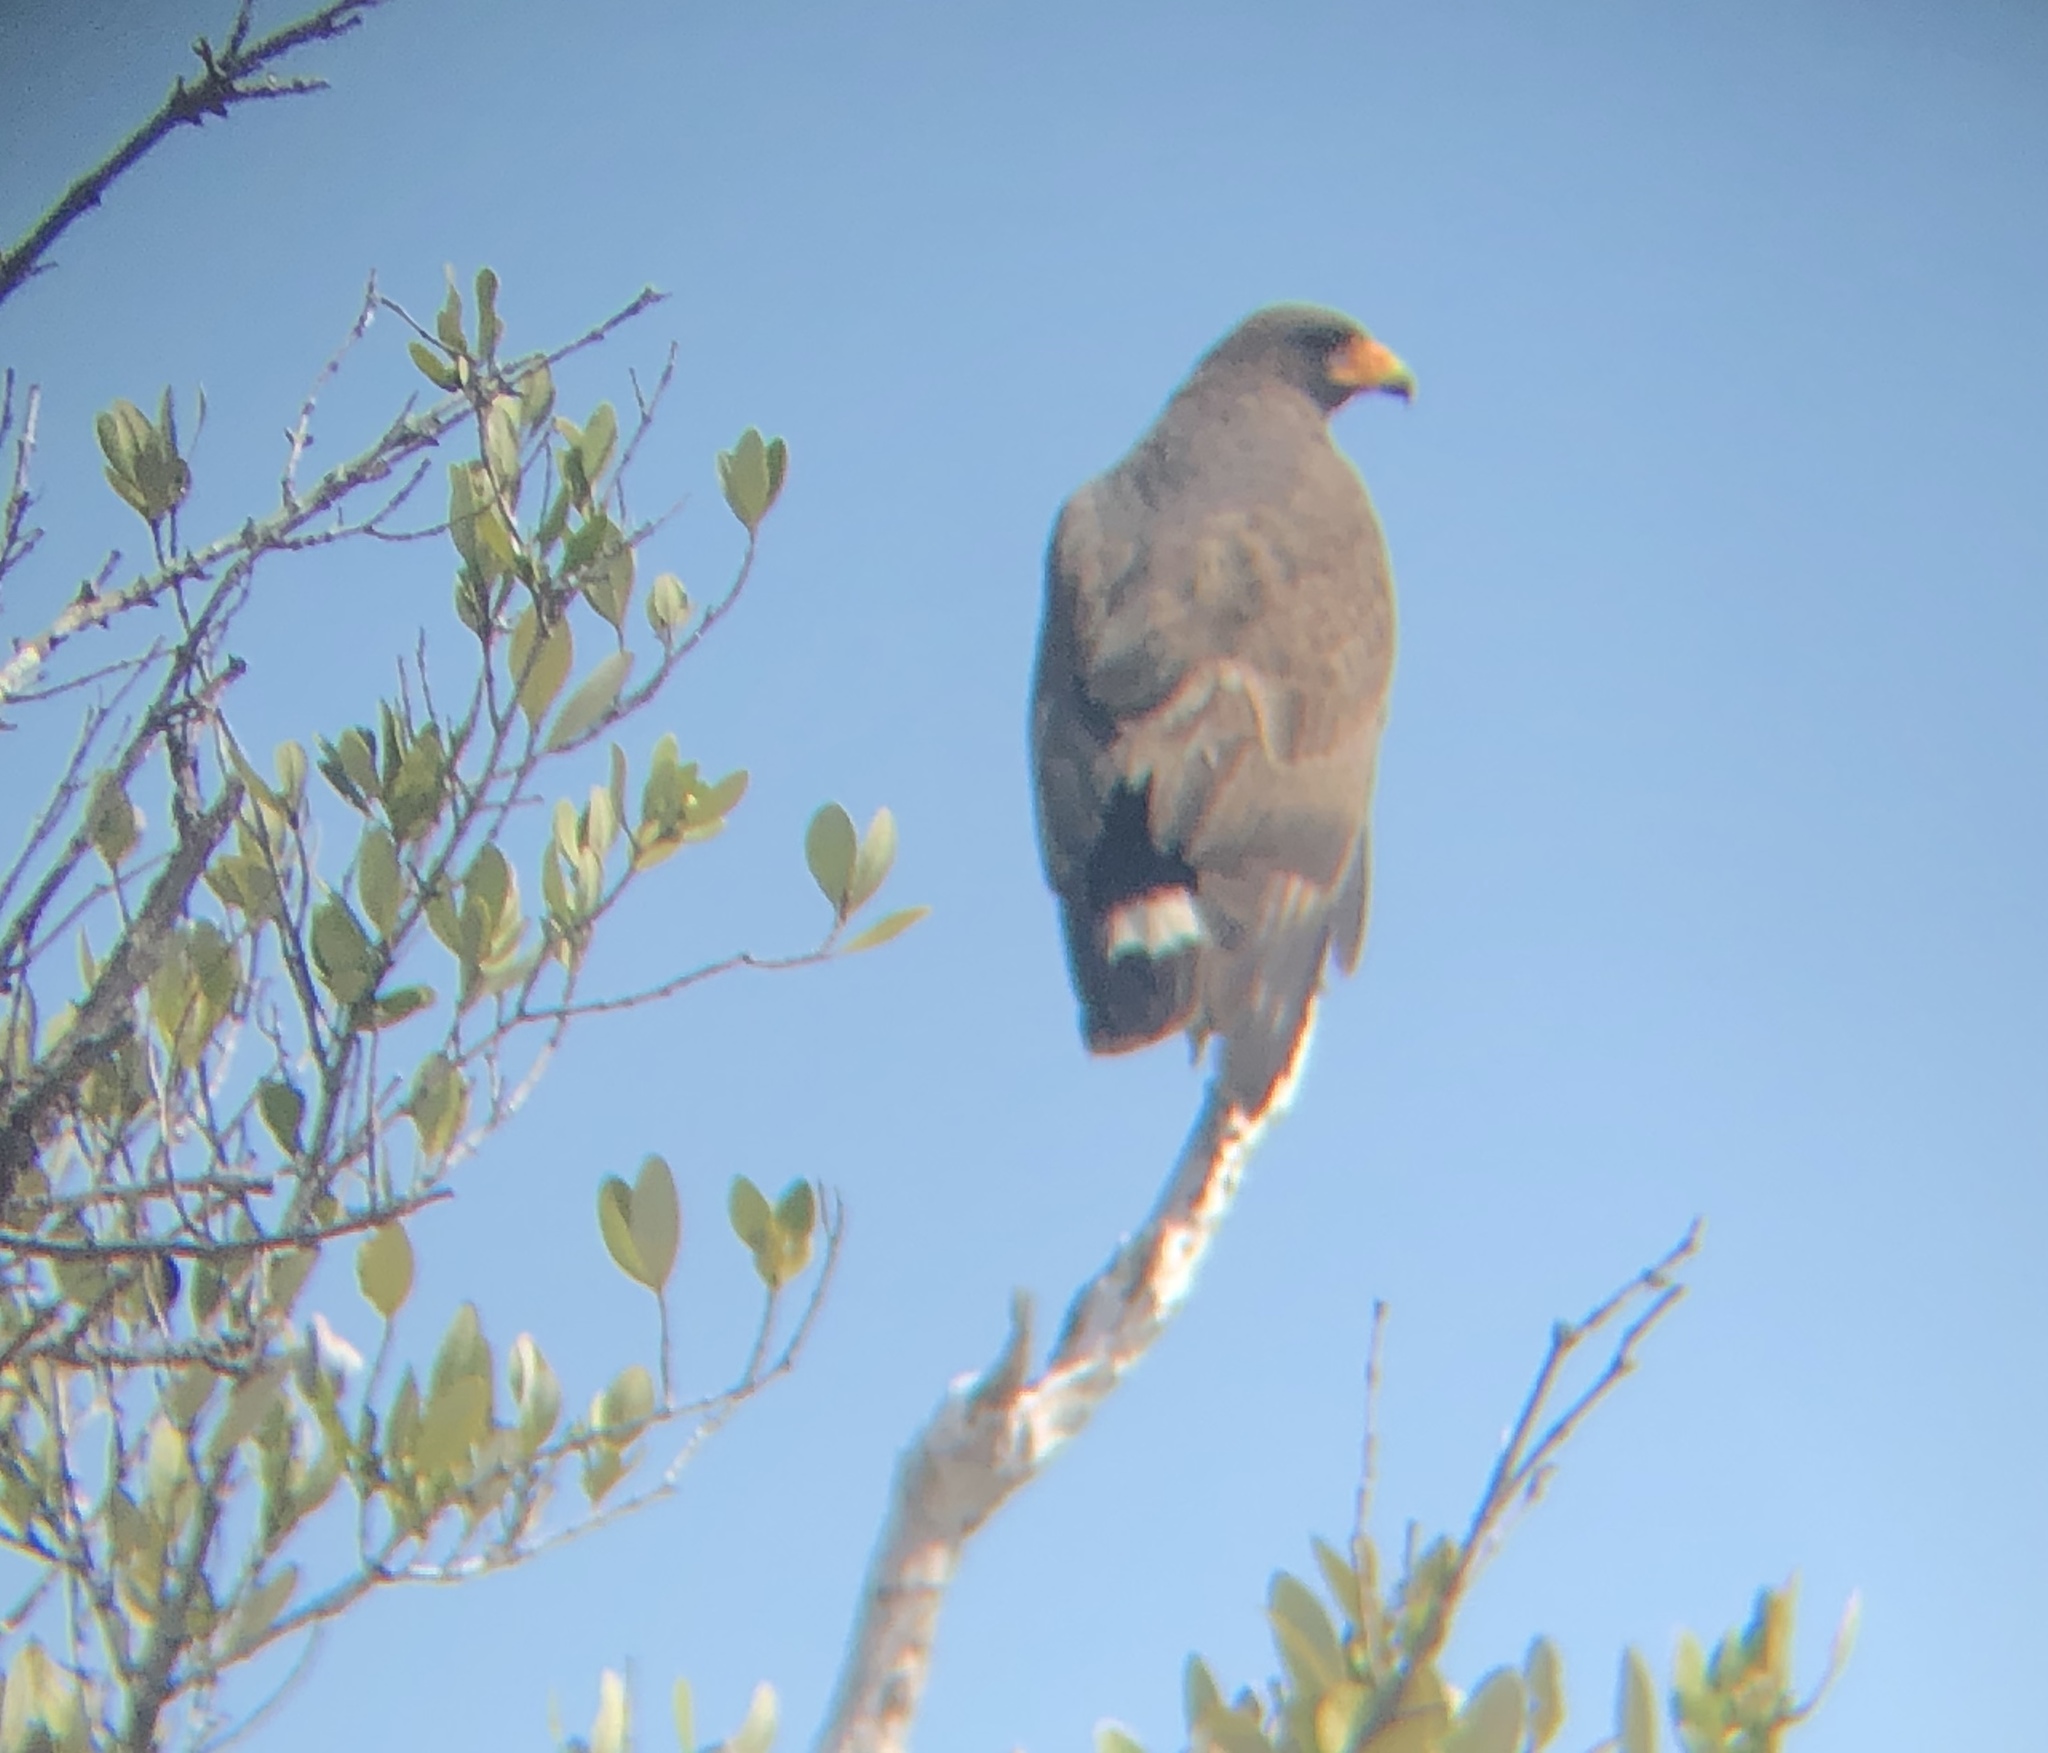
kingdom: Animalia
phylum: Chordata
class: Aves
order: Accipitriformes
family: Accipitridae
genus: Buteogallus
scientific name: Buteogallus gundlachii
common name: Cuban black hawk
